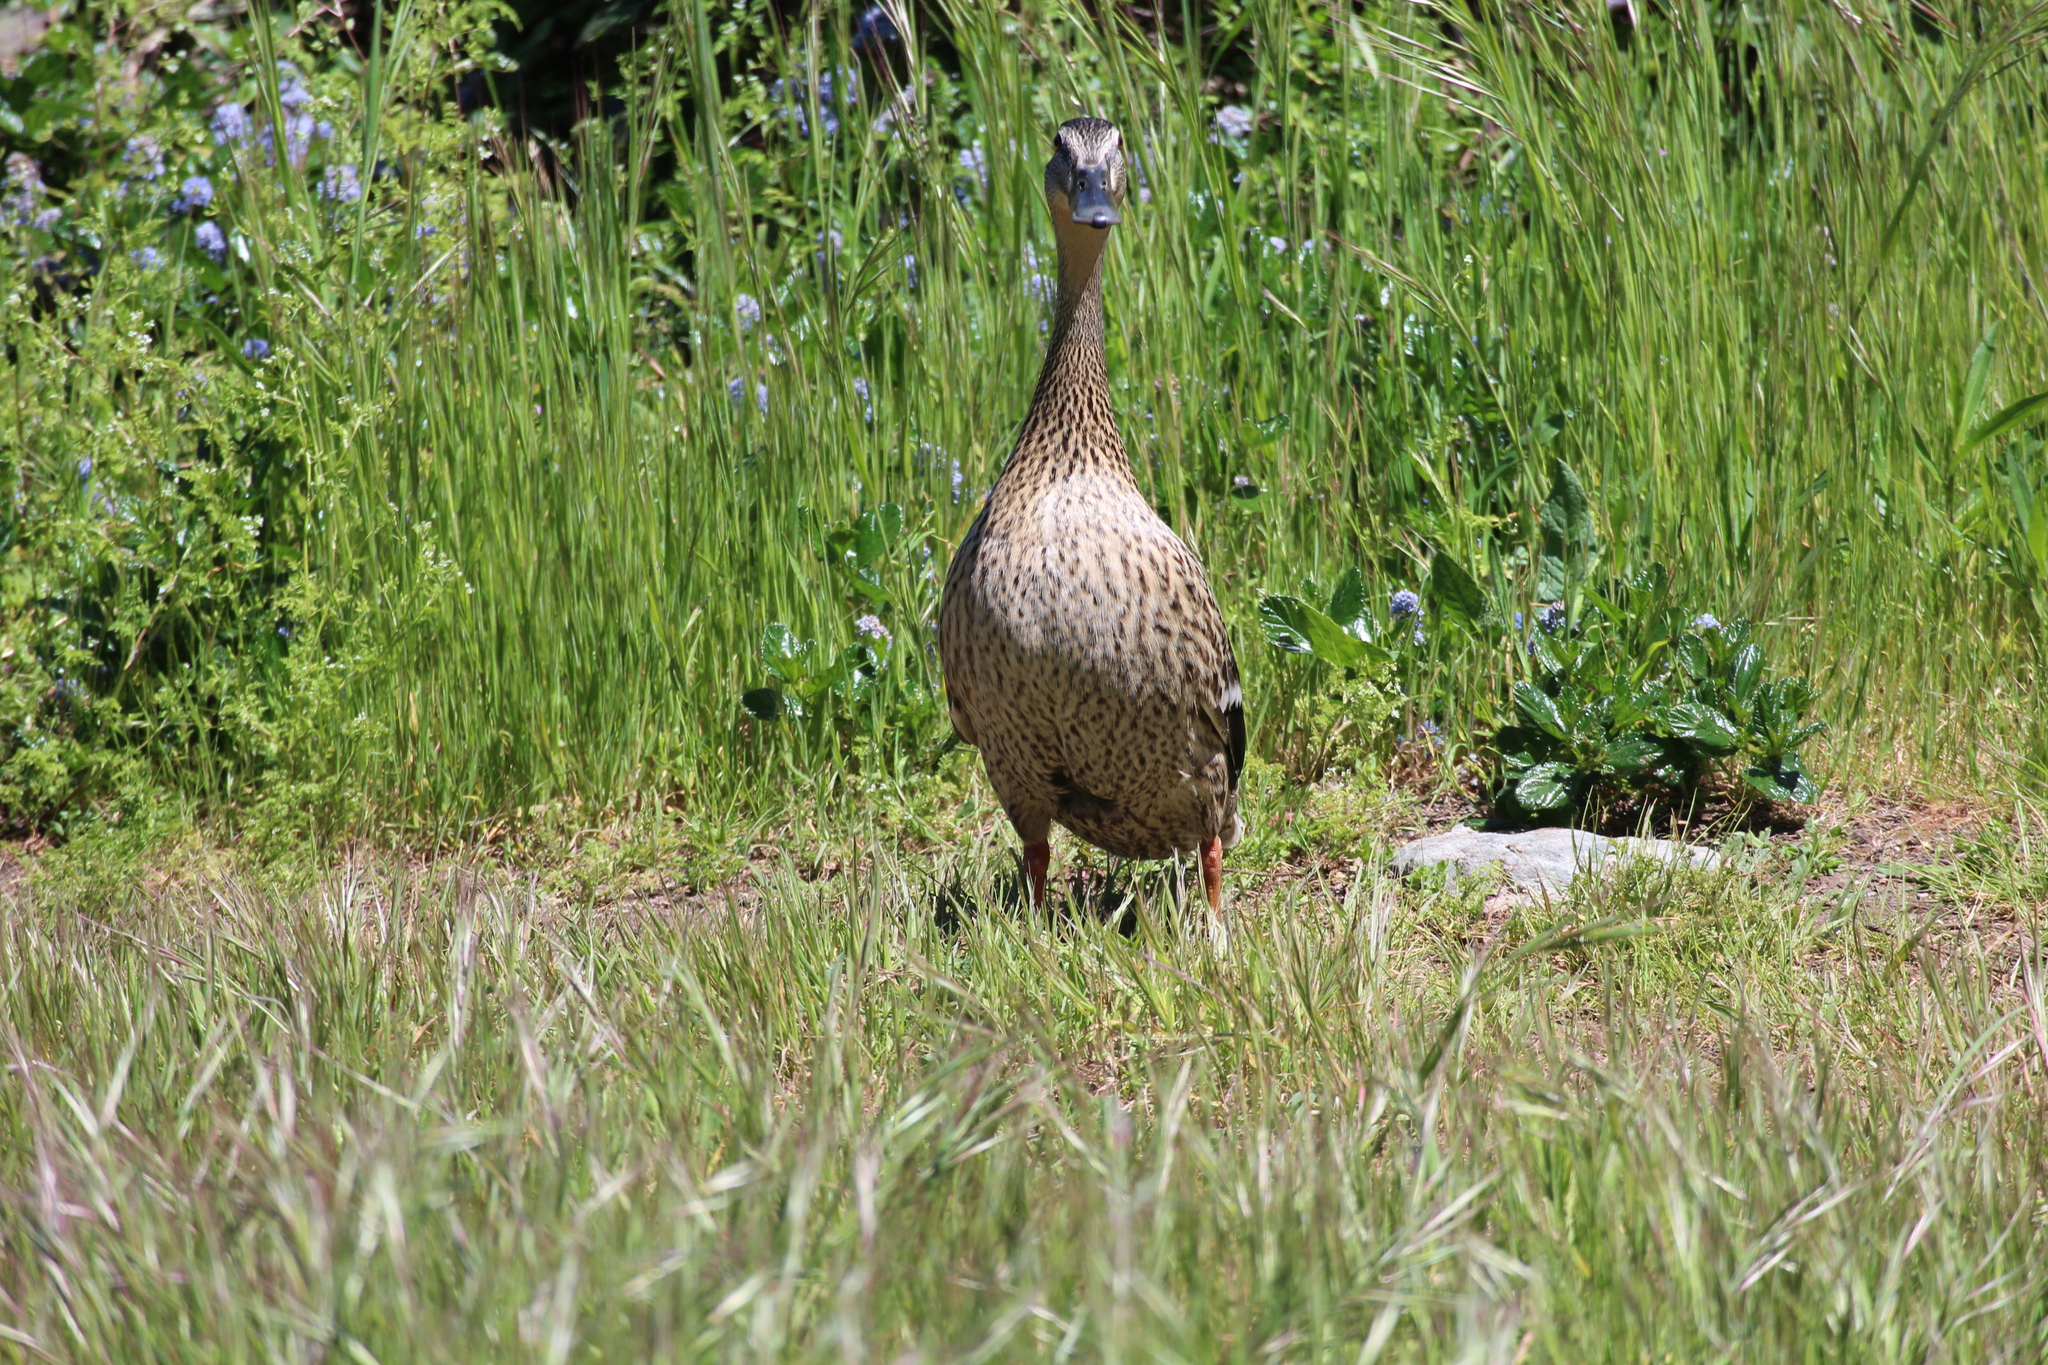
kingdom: Animalia
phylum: Chordata
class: Aves
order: Anseriformes
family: Anatidae
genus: Anas
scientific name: Anas platyrhynchos
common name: Mallard
